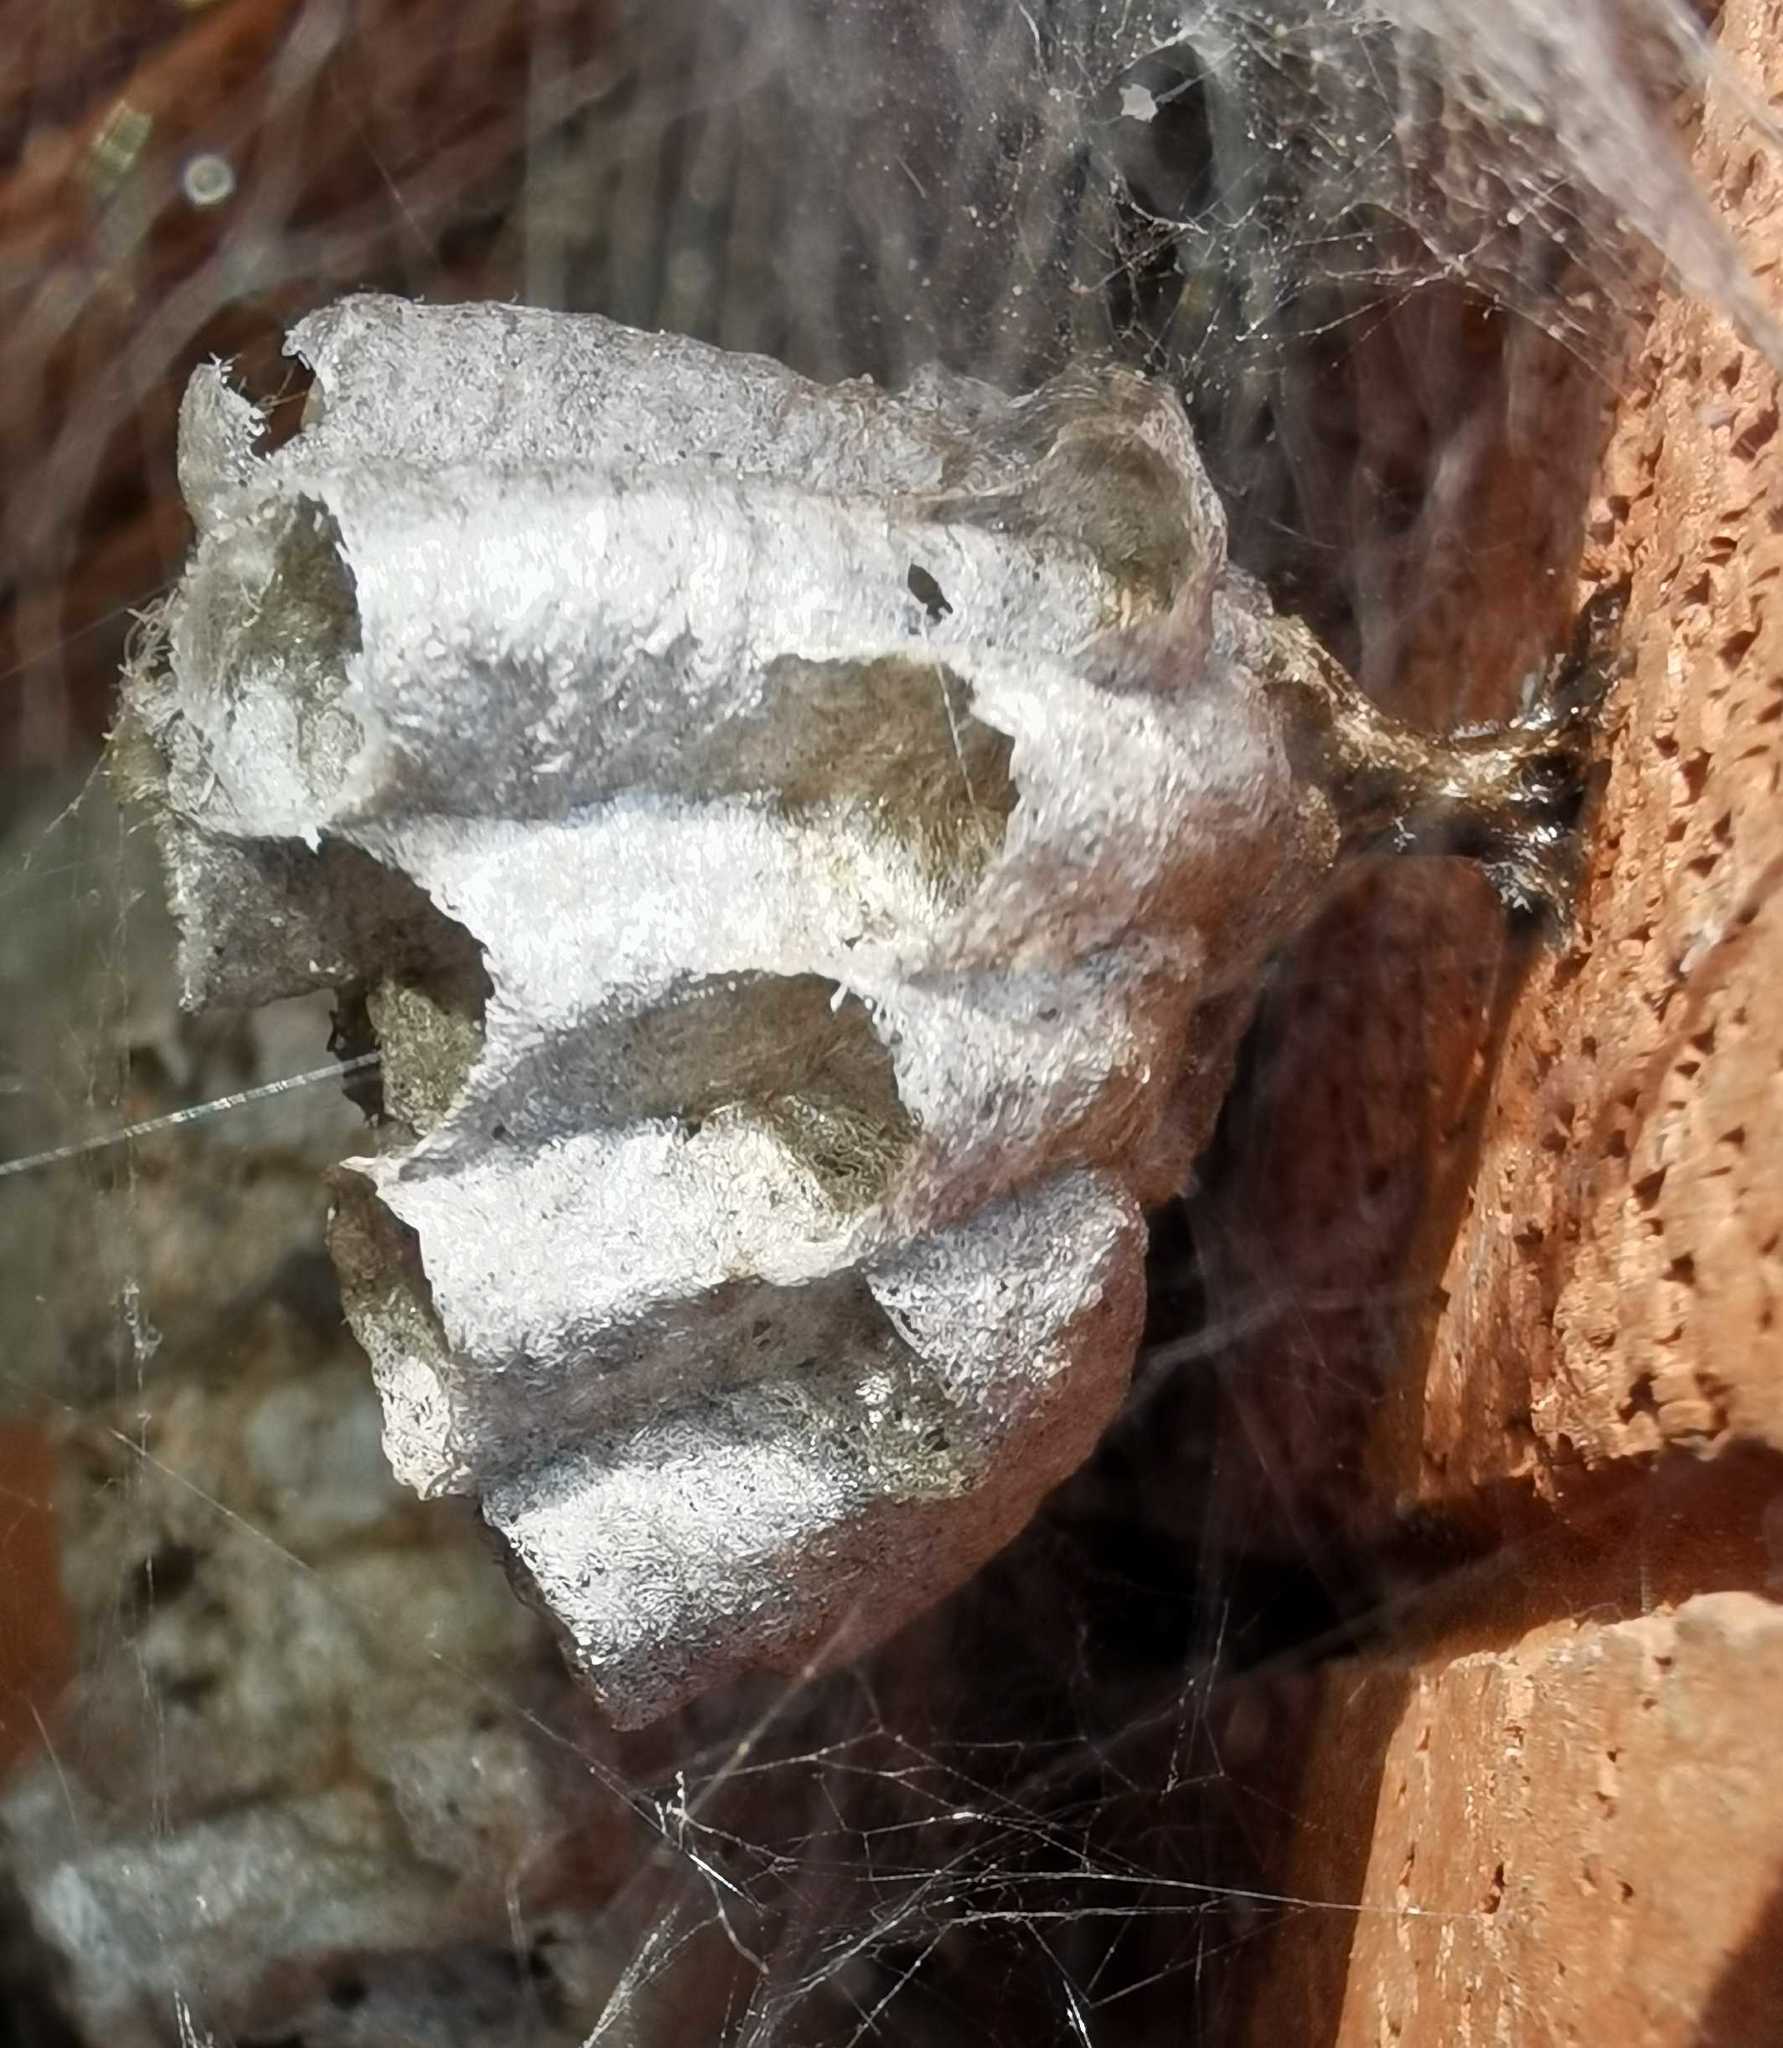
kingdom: Animalia
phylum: Arthropoda
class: Insecta
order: Hymenoptera
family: Eumenidae
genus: Polistes
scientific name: Polistes
